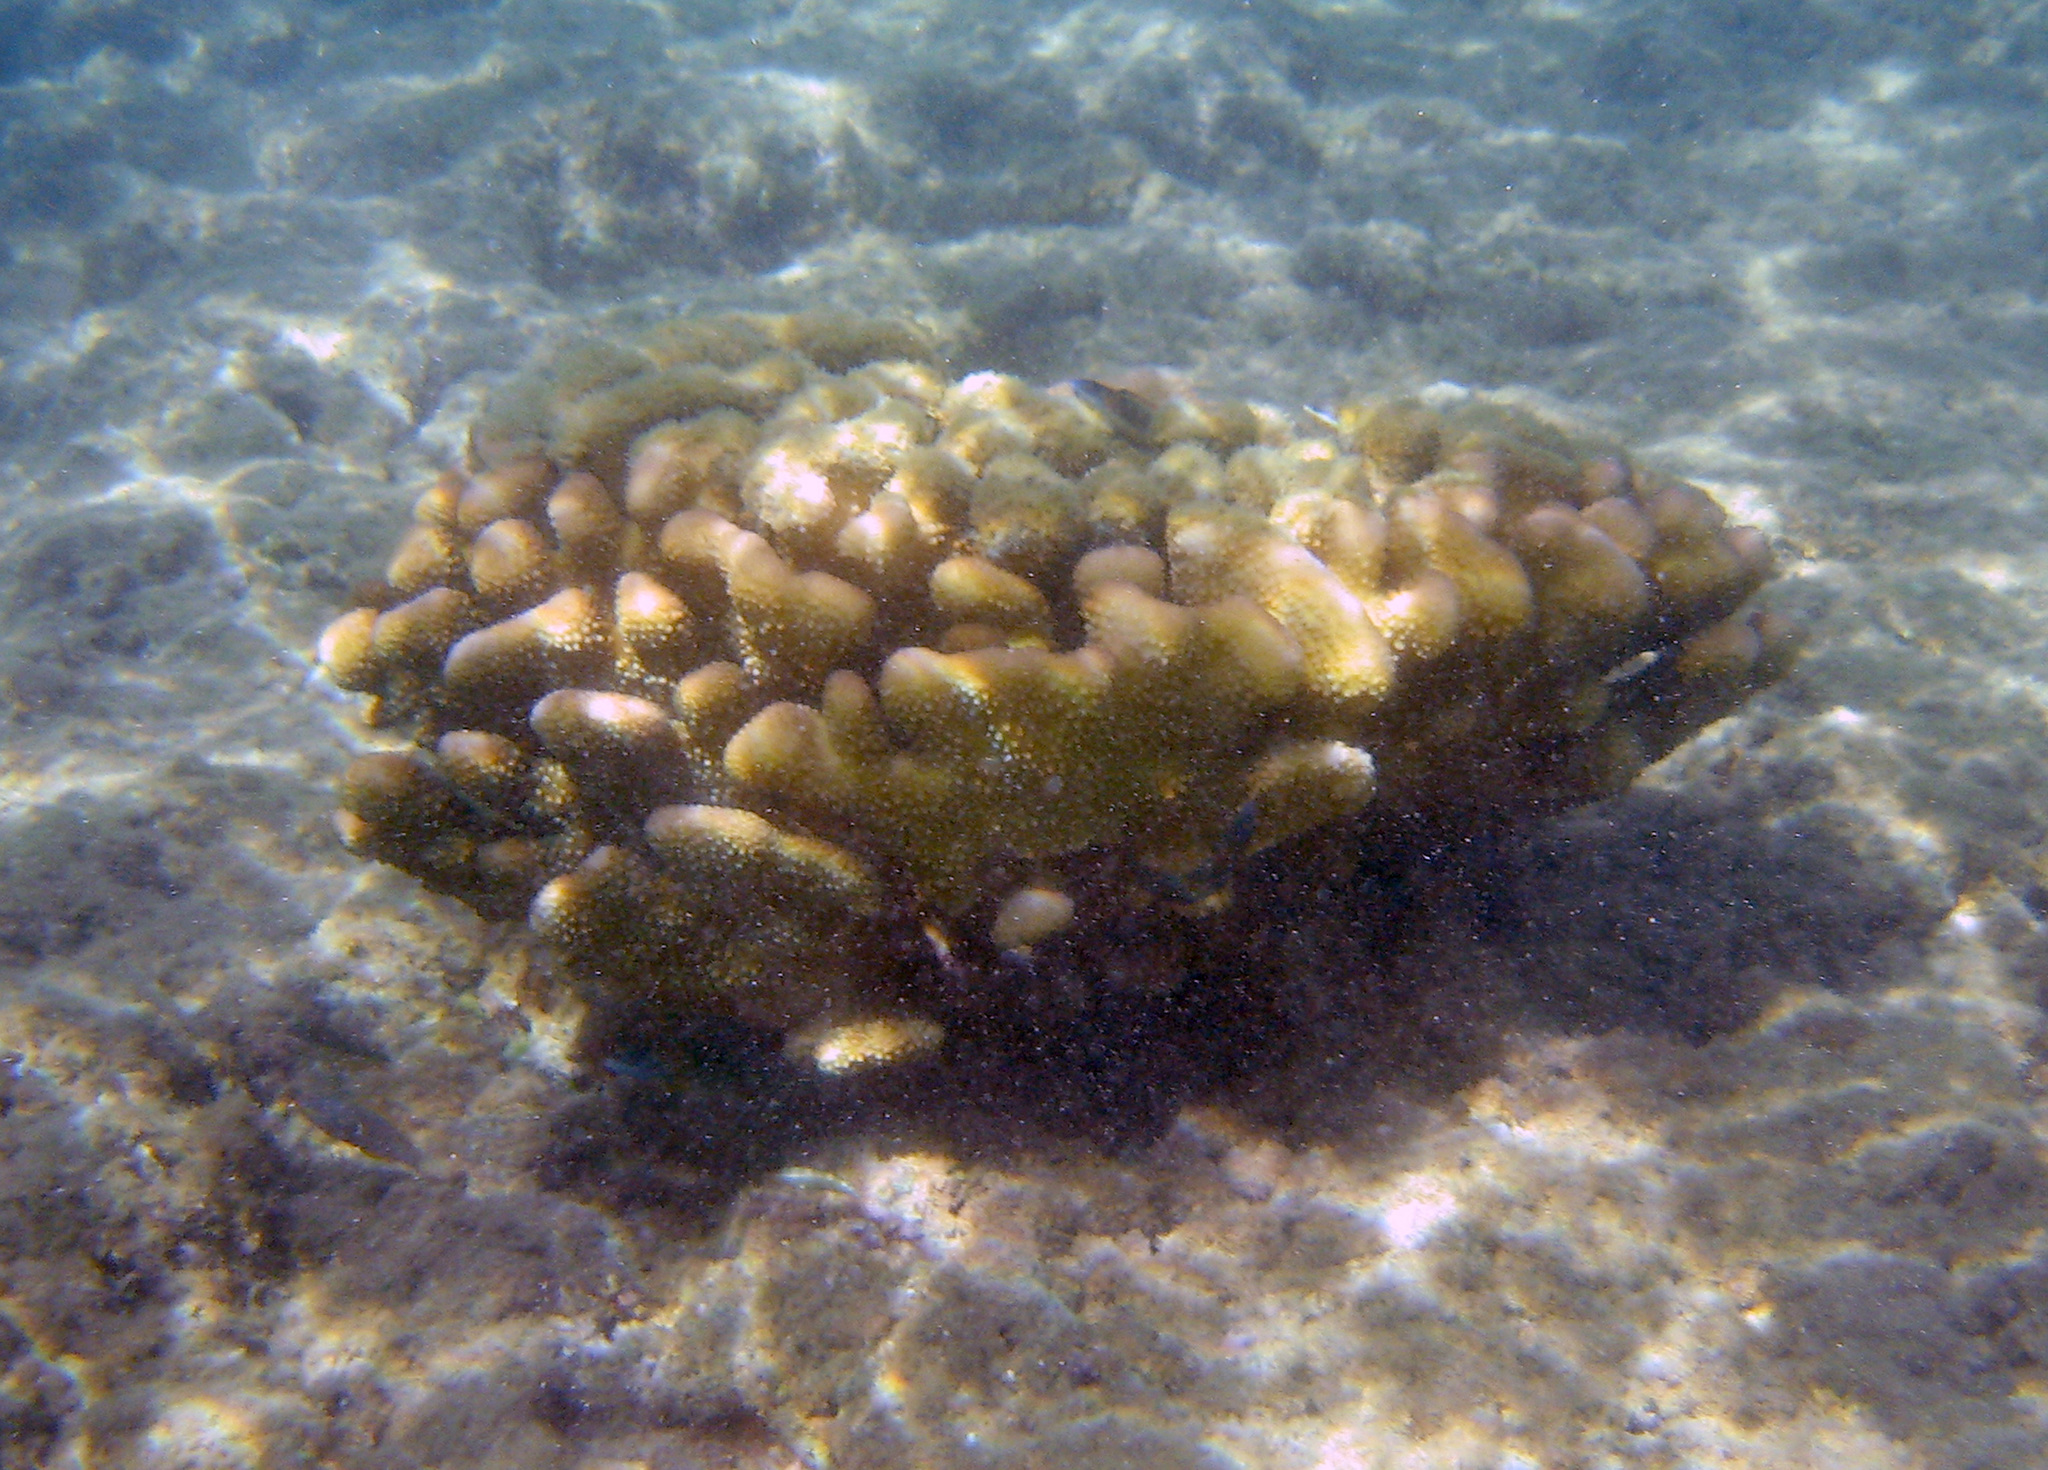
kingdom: Animalia
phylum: Cnidaria
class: Anthozoa
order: Scleractinia
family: Pocilloporidae
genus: Pocillopora
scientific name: Pocillopora meandrina
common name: Cauliflower coral
